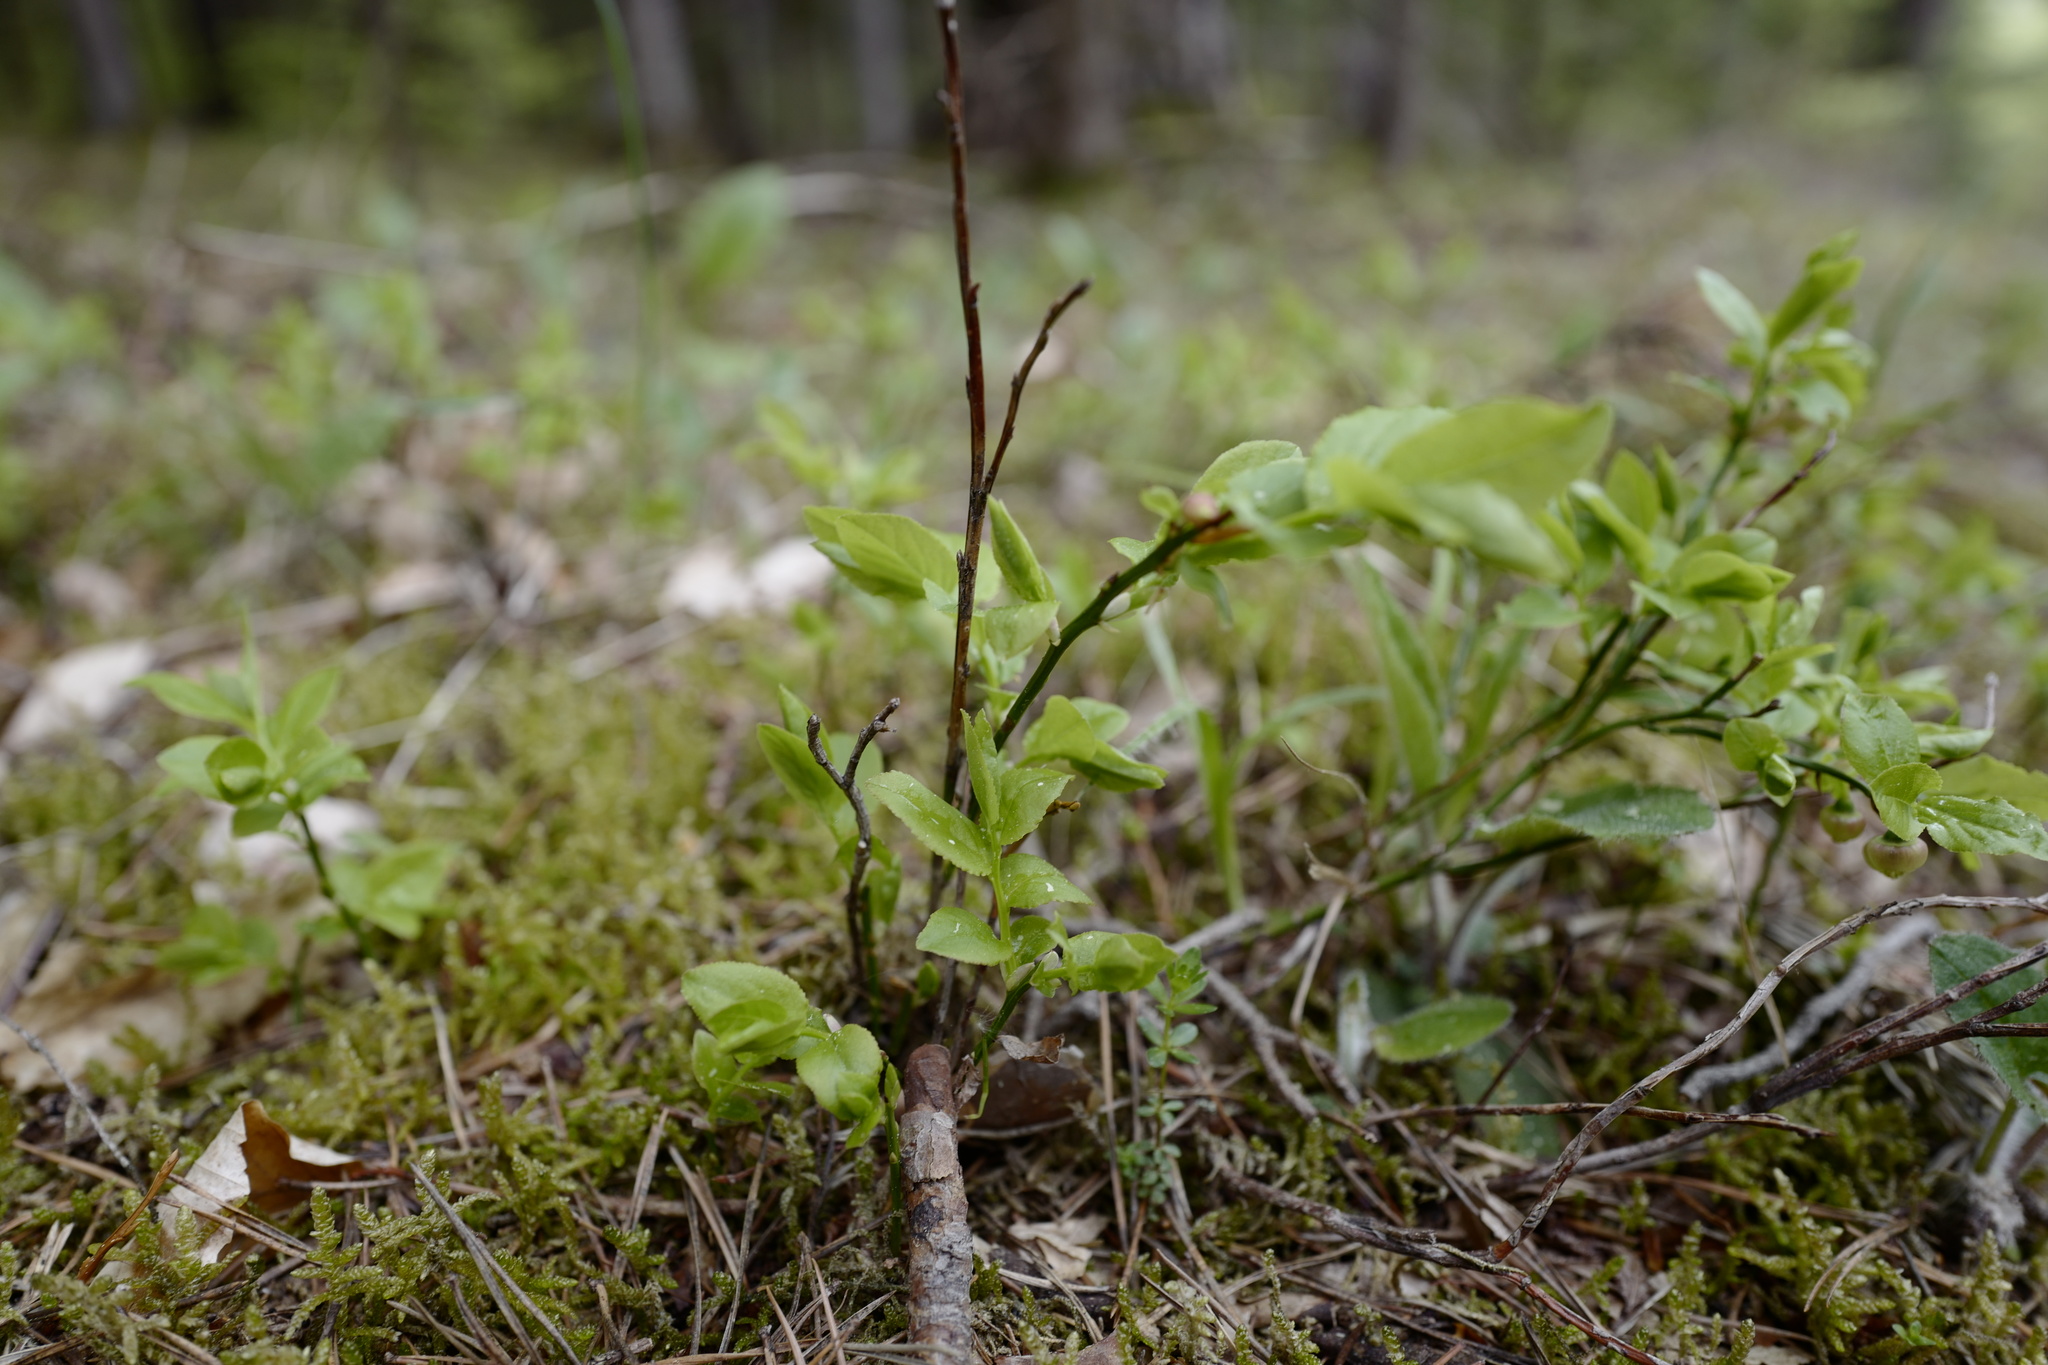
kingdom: Plantae
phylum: Tracheophyta
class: Magnoliopsida
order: Ericales
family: Ericaceae
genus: Vaccinium
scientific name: Vaccinium myrtillus
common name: Bilberry
